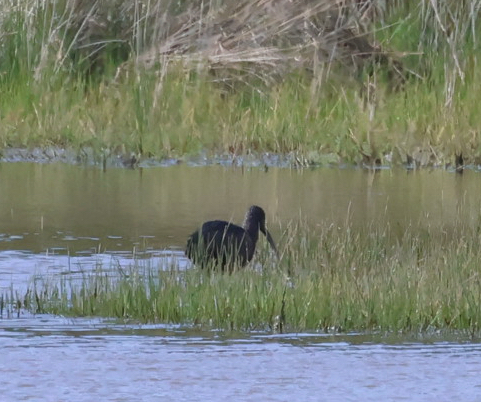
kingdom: Animalia
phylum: Chordata
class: Aves
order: Pelecaniformes
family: Threskiornithidae
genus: Plegadis
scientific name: Plegadis falcinellus
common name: Glossy ibis
